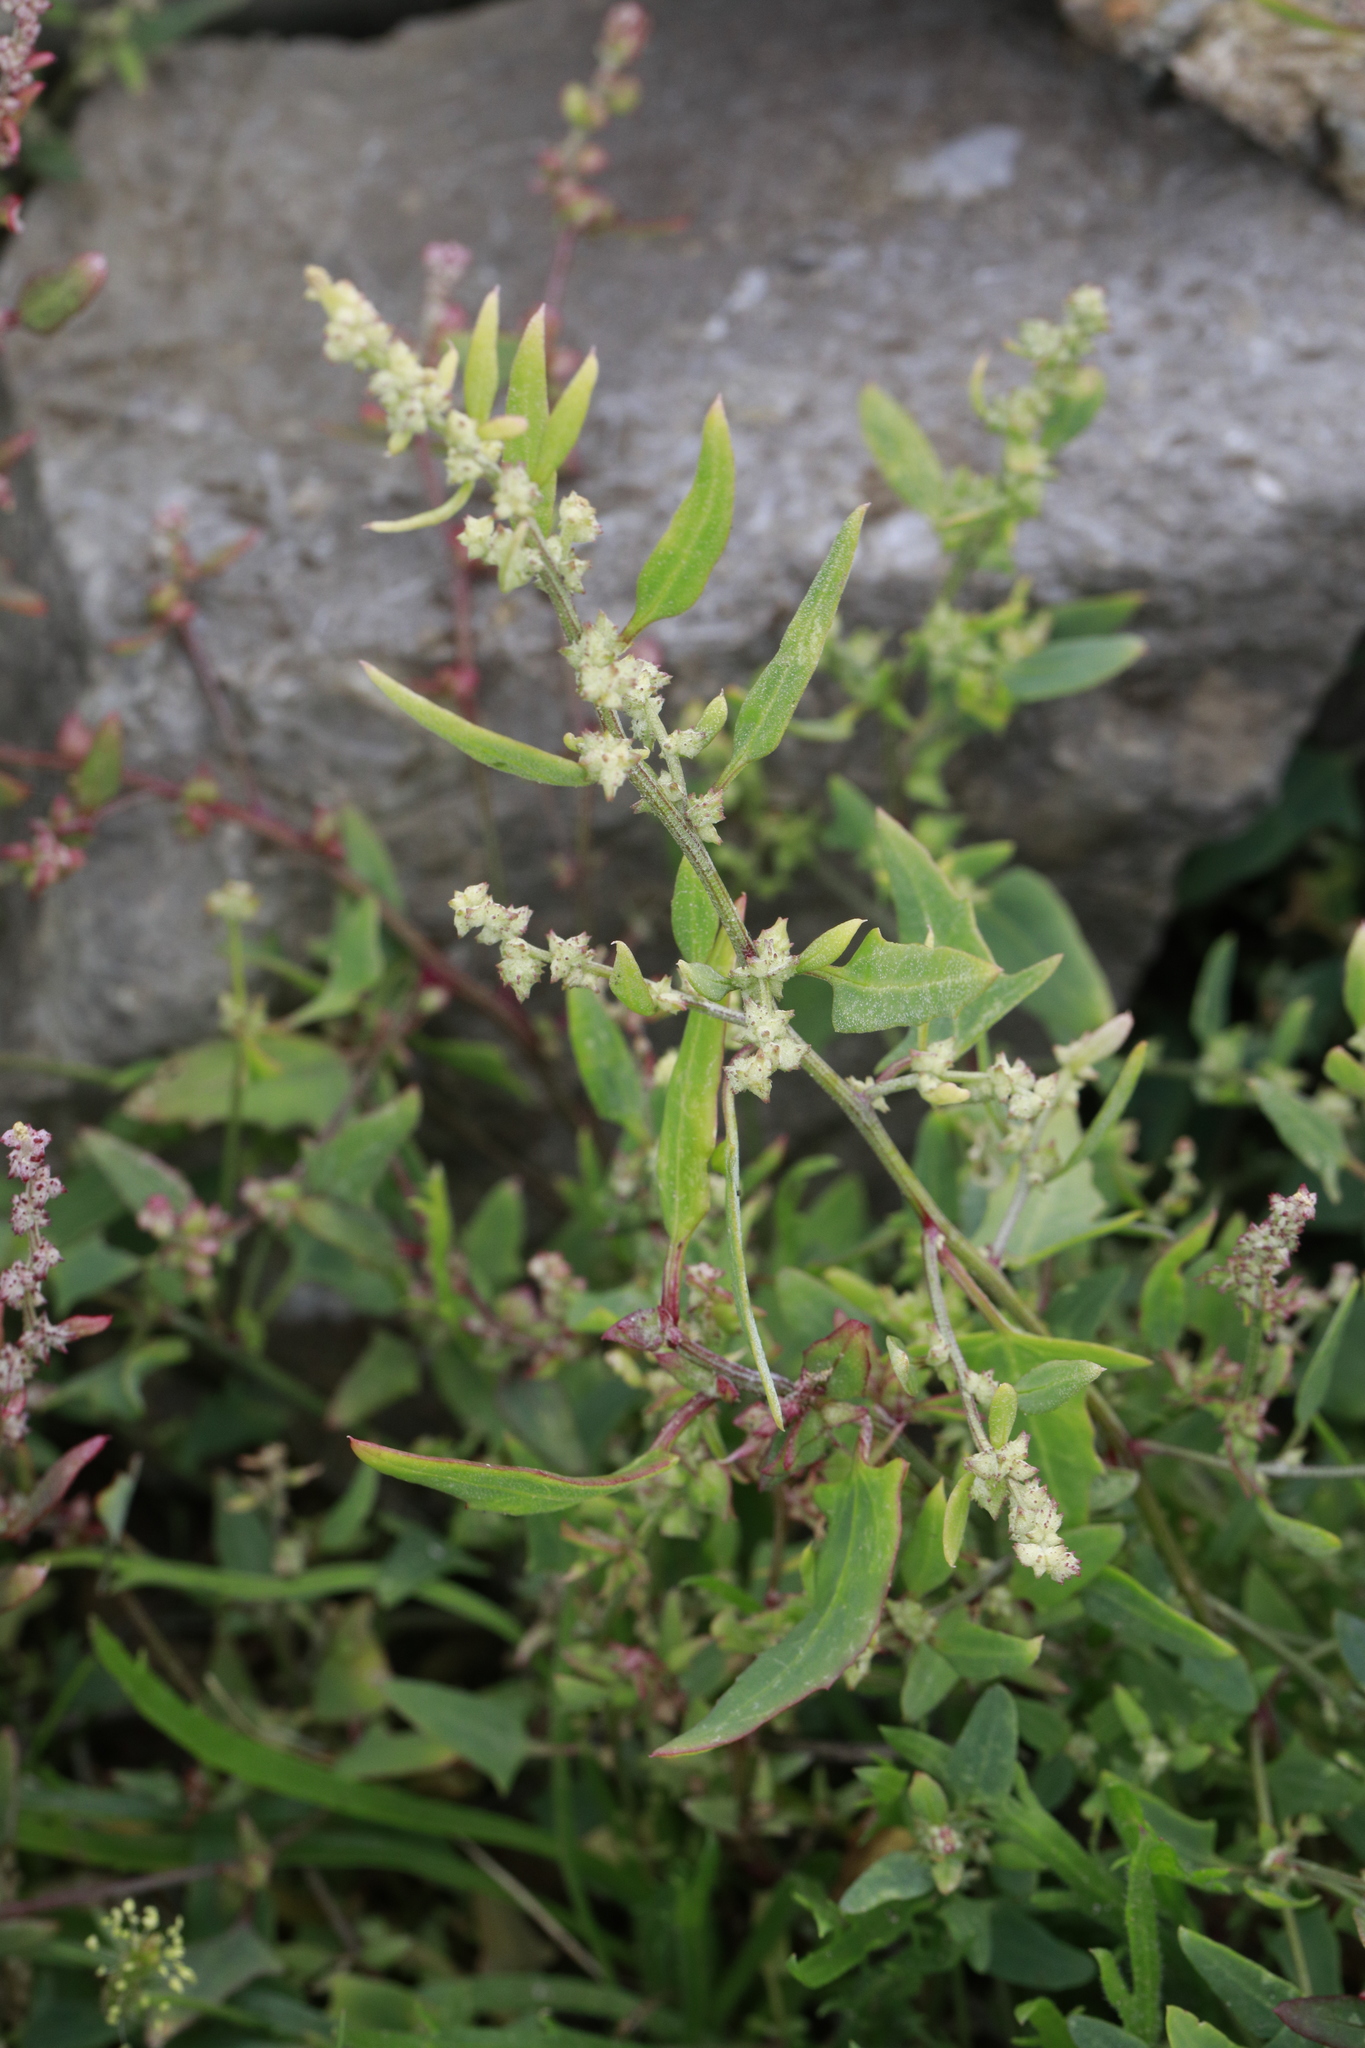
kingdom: Plantae
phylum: Tracheophyta
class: Magnoliopsida
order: Caryophyllales
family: Amaranthaceae
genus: Atriplex
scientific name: Atriplex prostrata
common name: Spear-leaved orache
